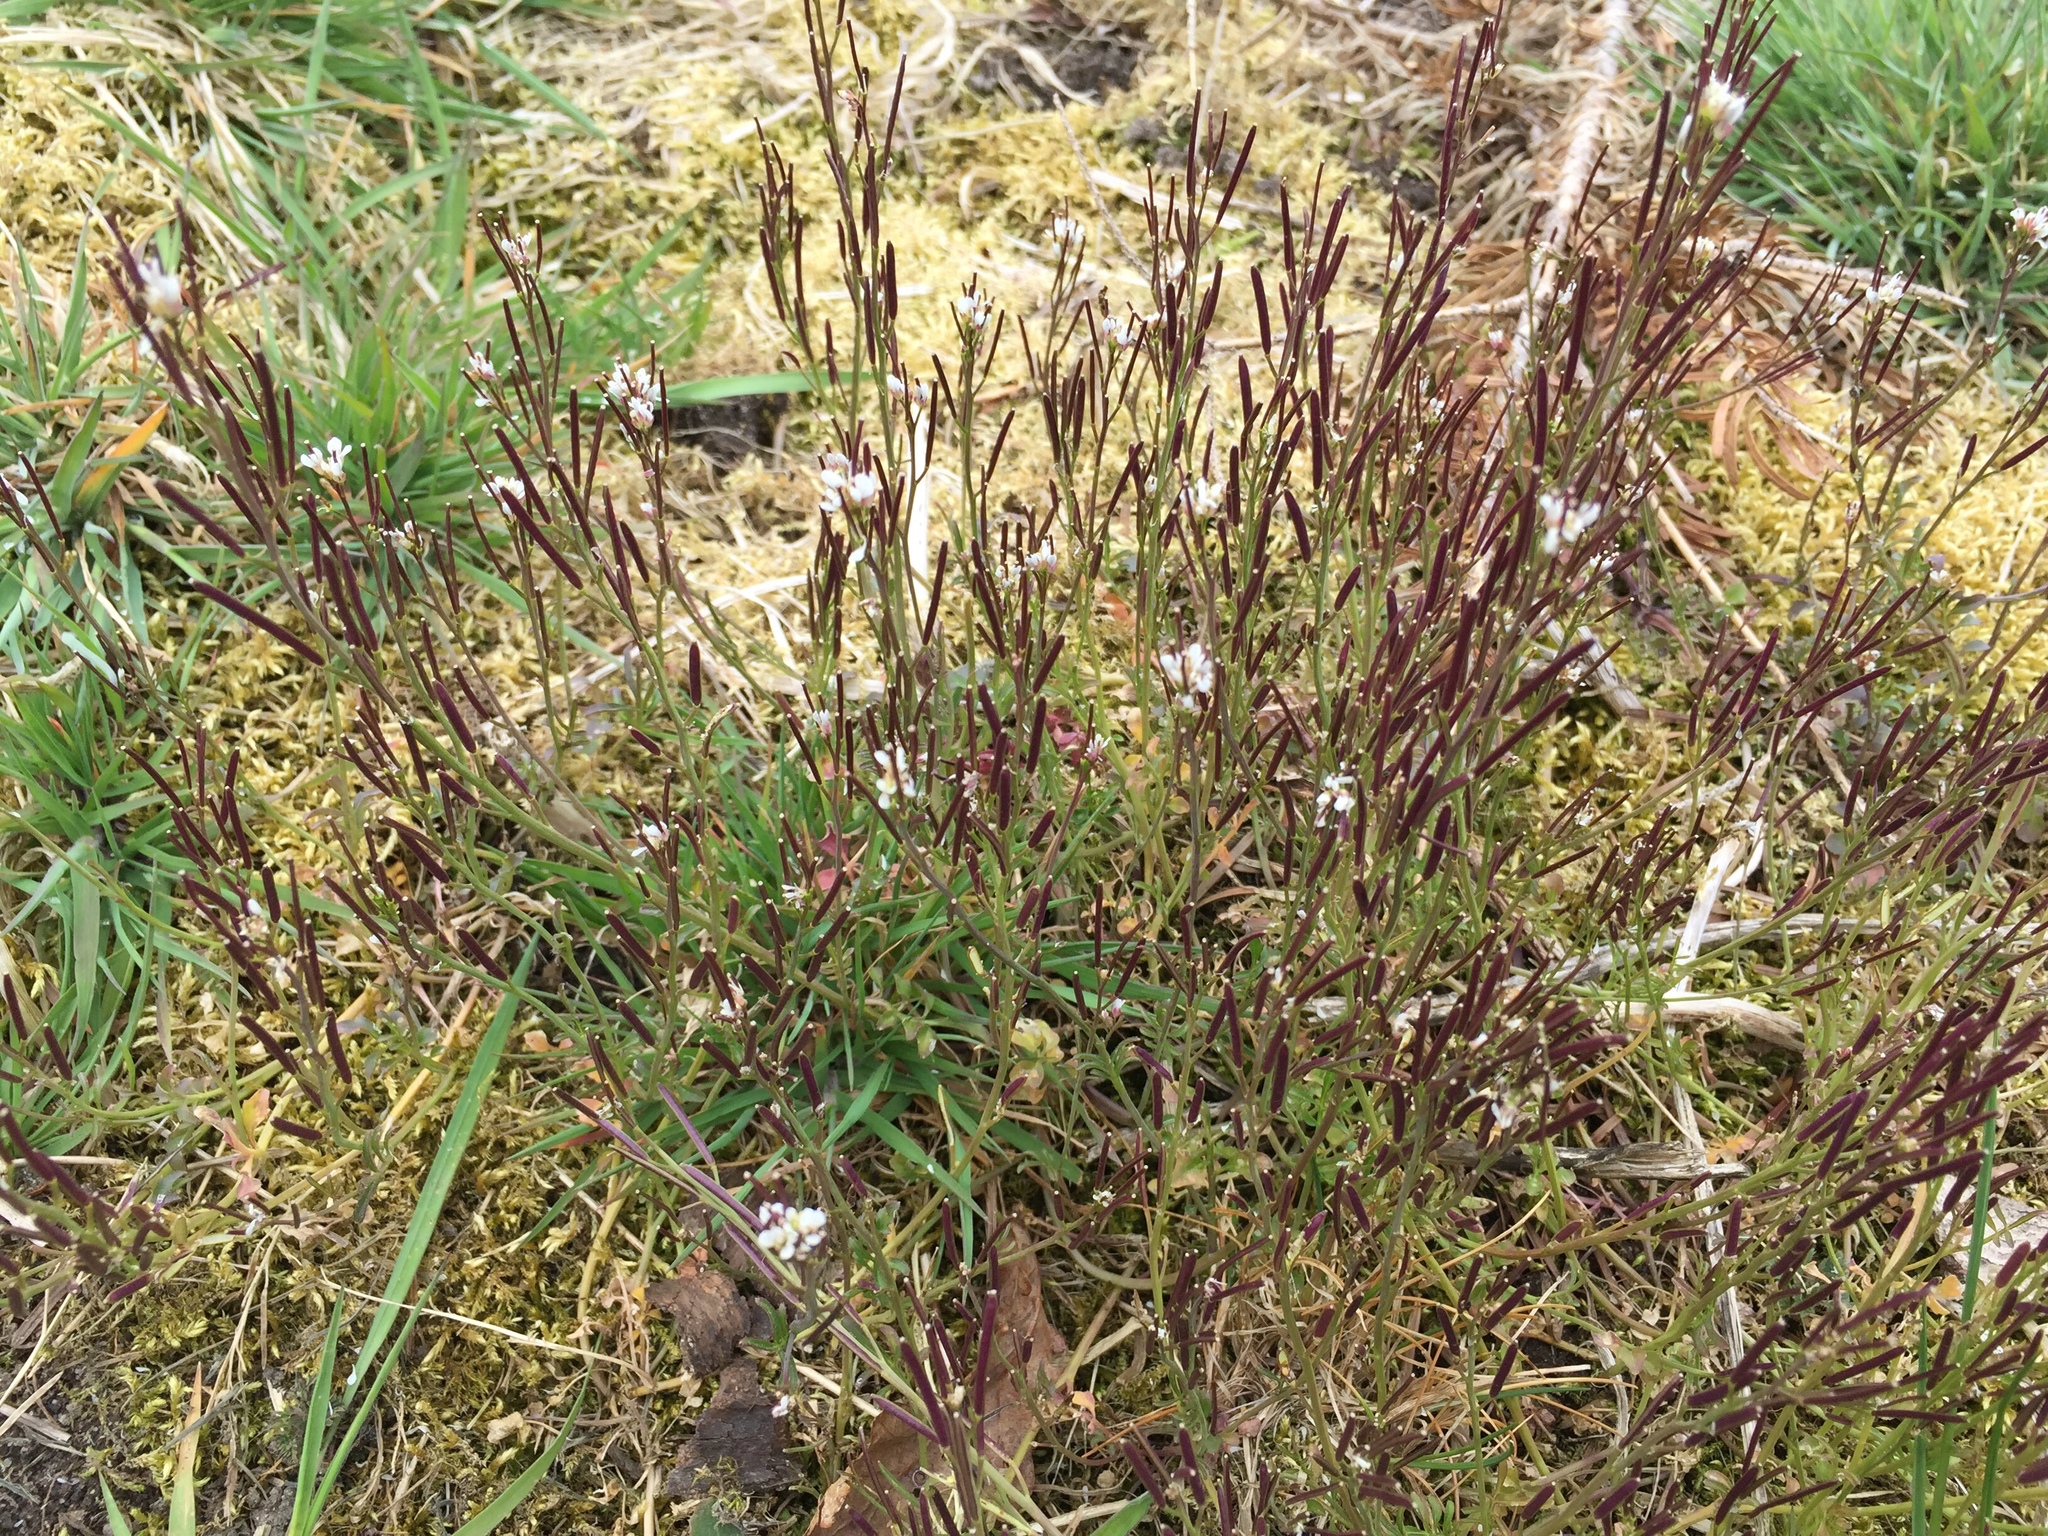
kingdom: Plantae
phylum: Tracheophyta
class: Magnoliopsida
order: Brassicales
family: Brassicaceae
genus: Cardamine
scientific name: Cardamine hirsuta
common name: Hairy bittercress
